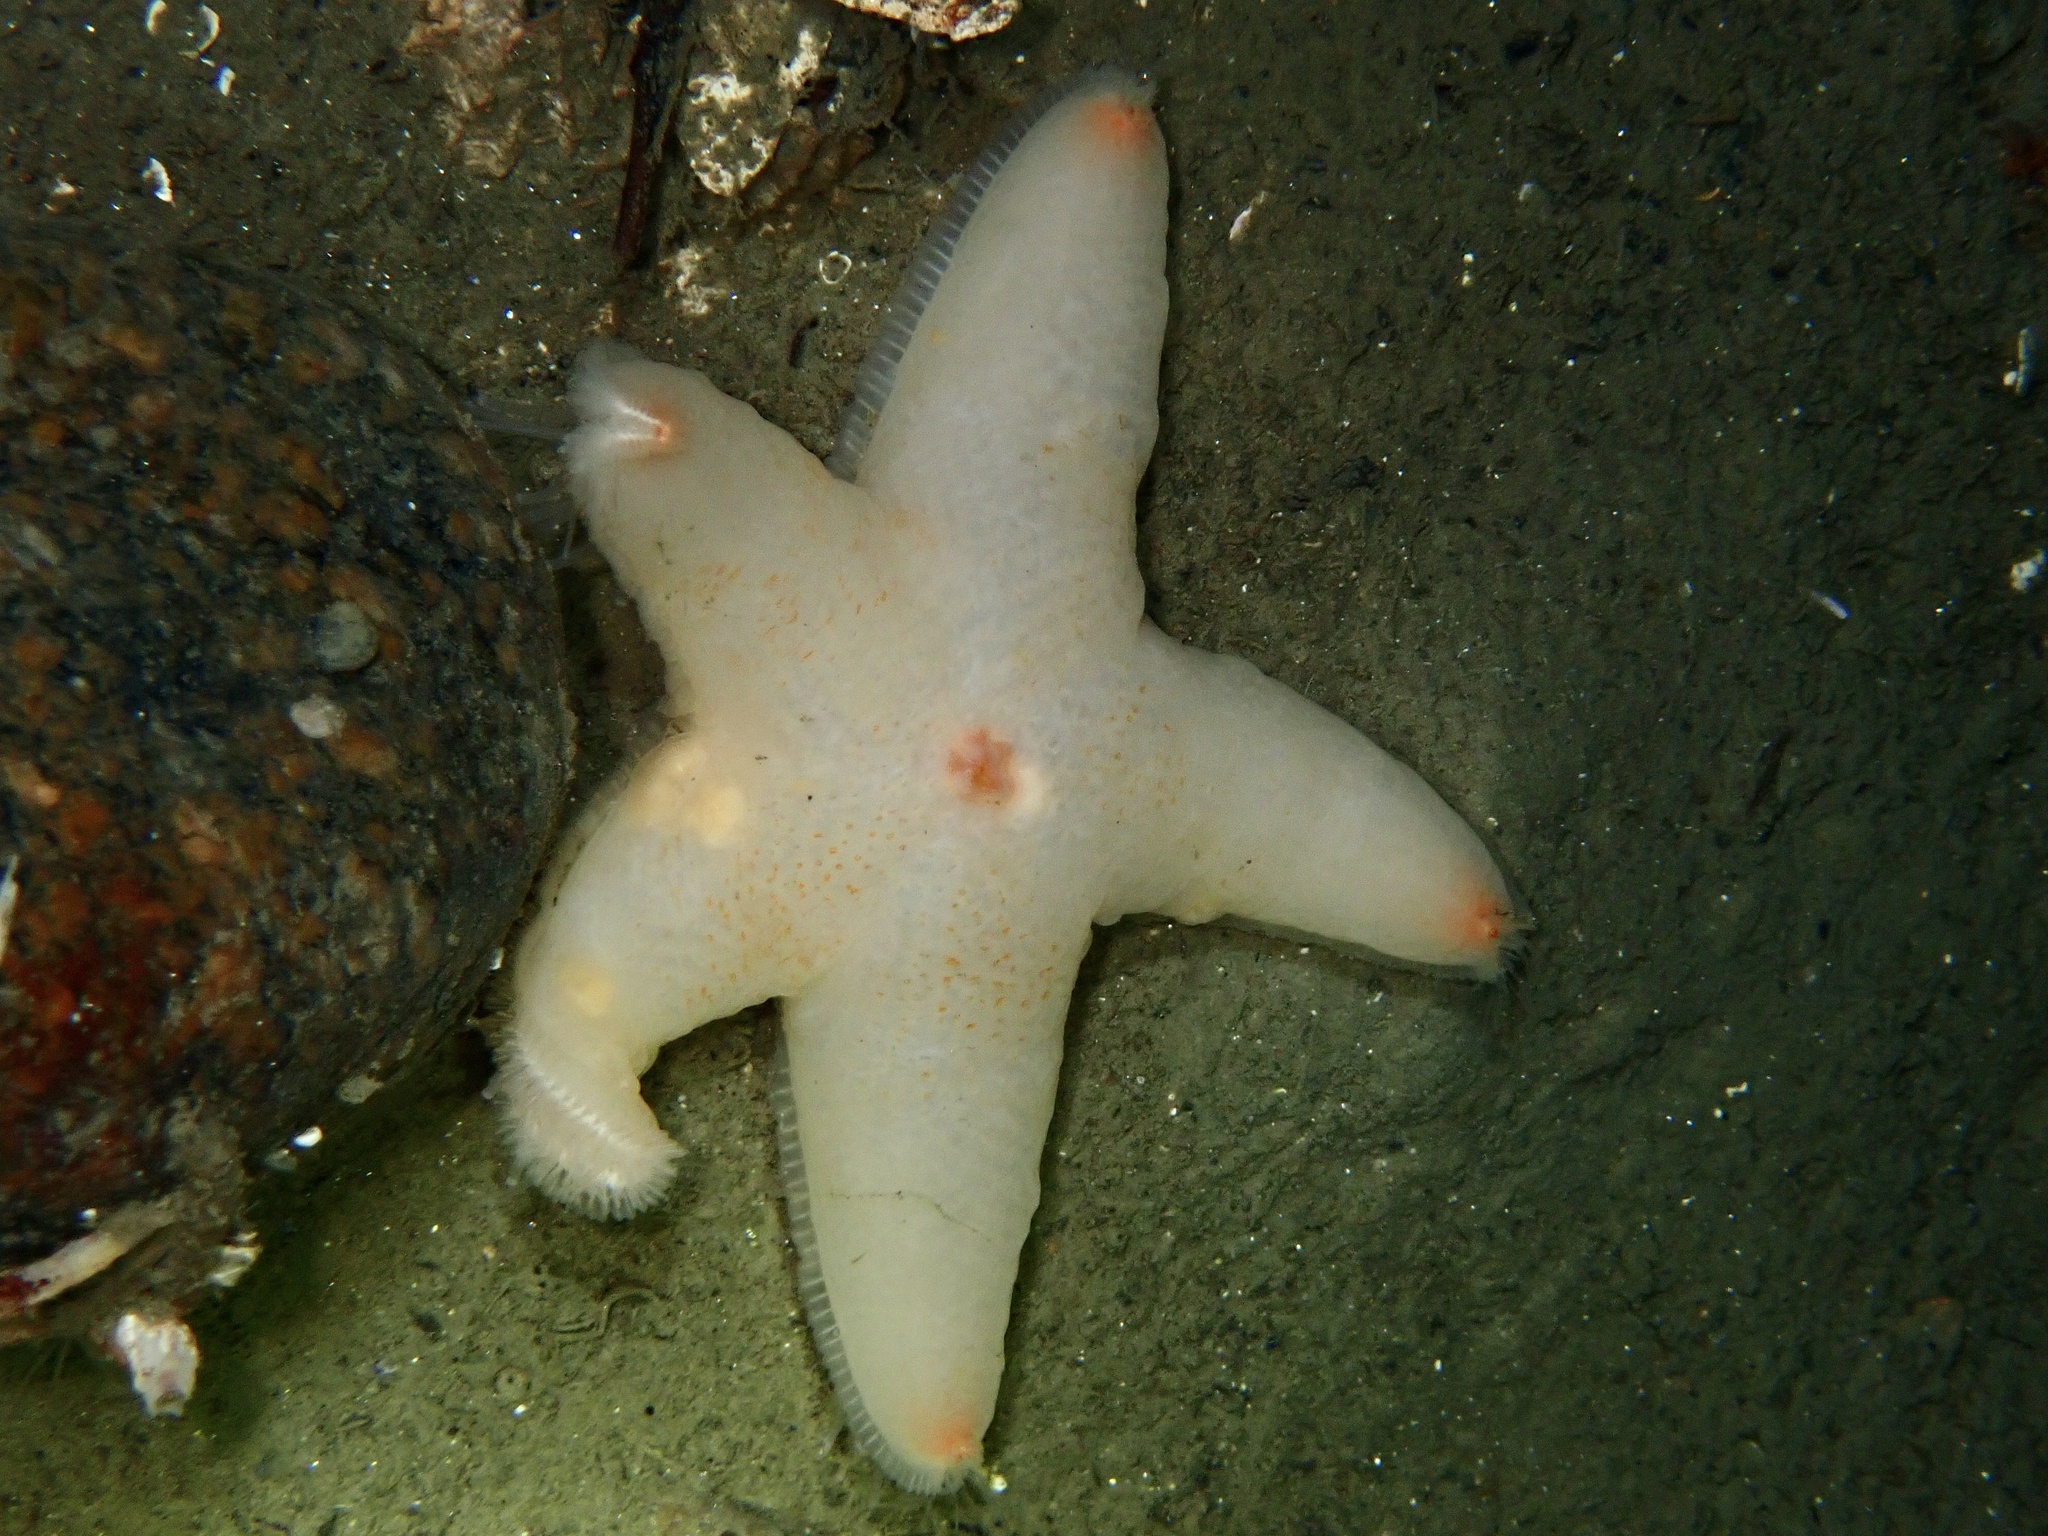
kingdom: Animalia
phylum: Echinodermata
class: Asteroidea
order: Velatida
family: Pterasteridae
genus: Pteraster
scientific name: Pteraster militaris
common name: Wrinkled slime star
